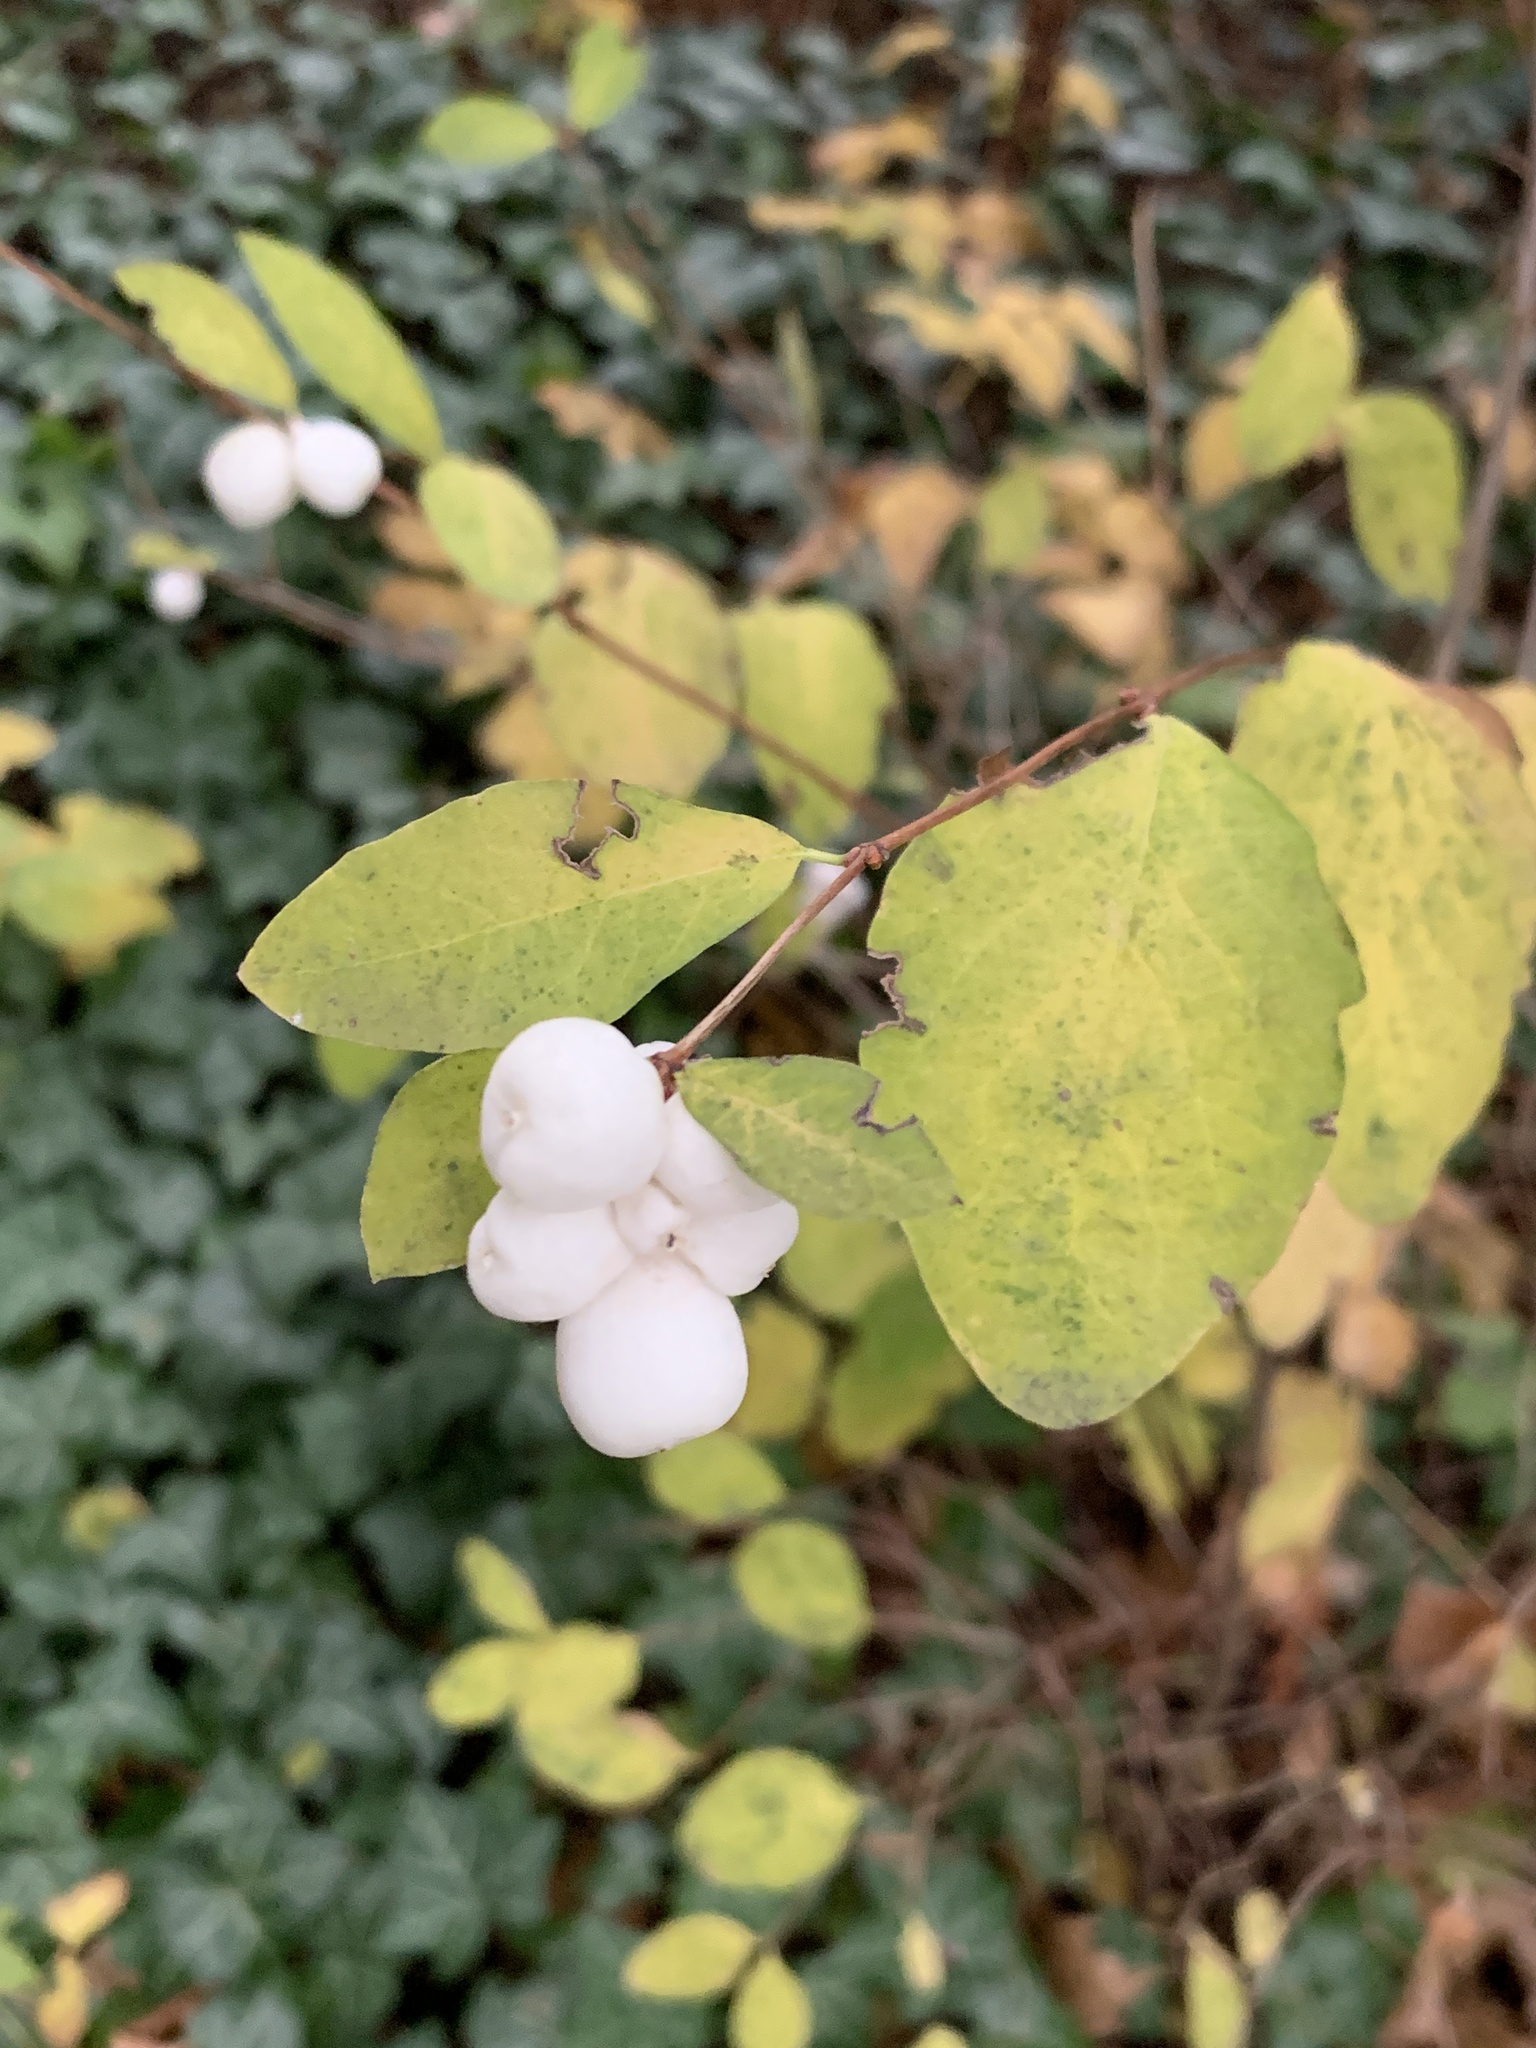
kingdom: Plantae
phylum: Tracheophyta
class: Magnoliopsida
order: Dipsacales
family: Caprifoliaceae
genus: Symphoricarpos
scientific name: Symphoricarpos albus
